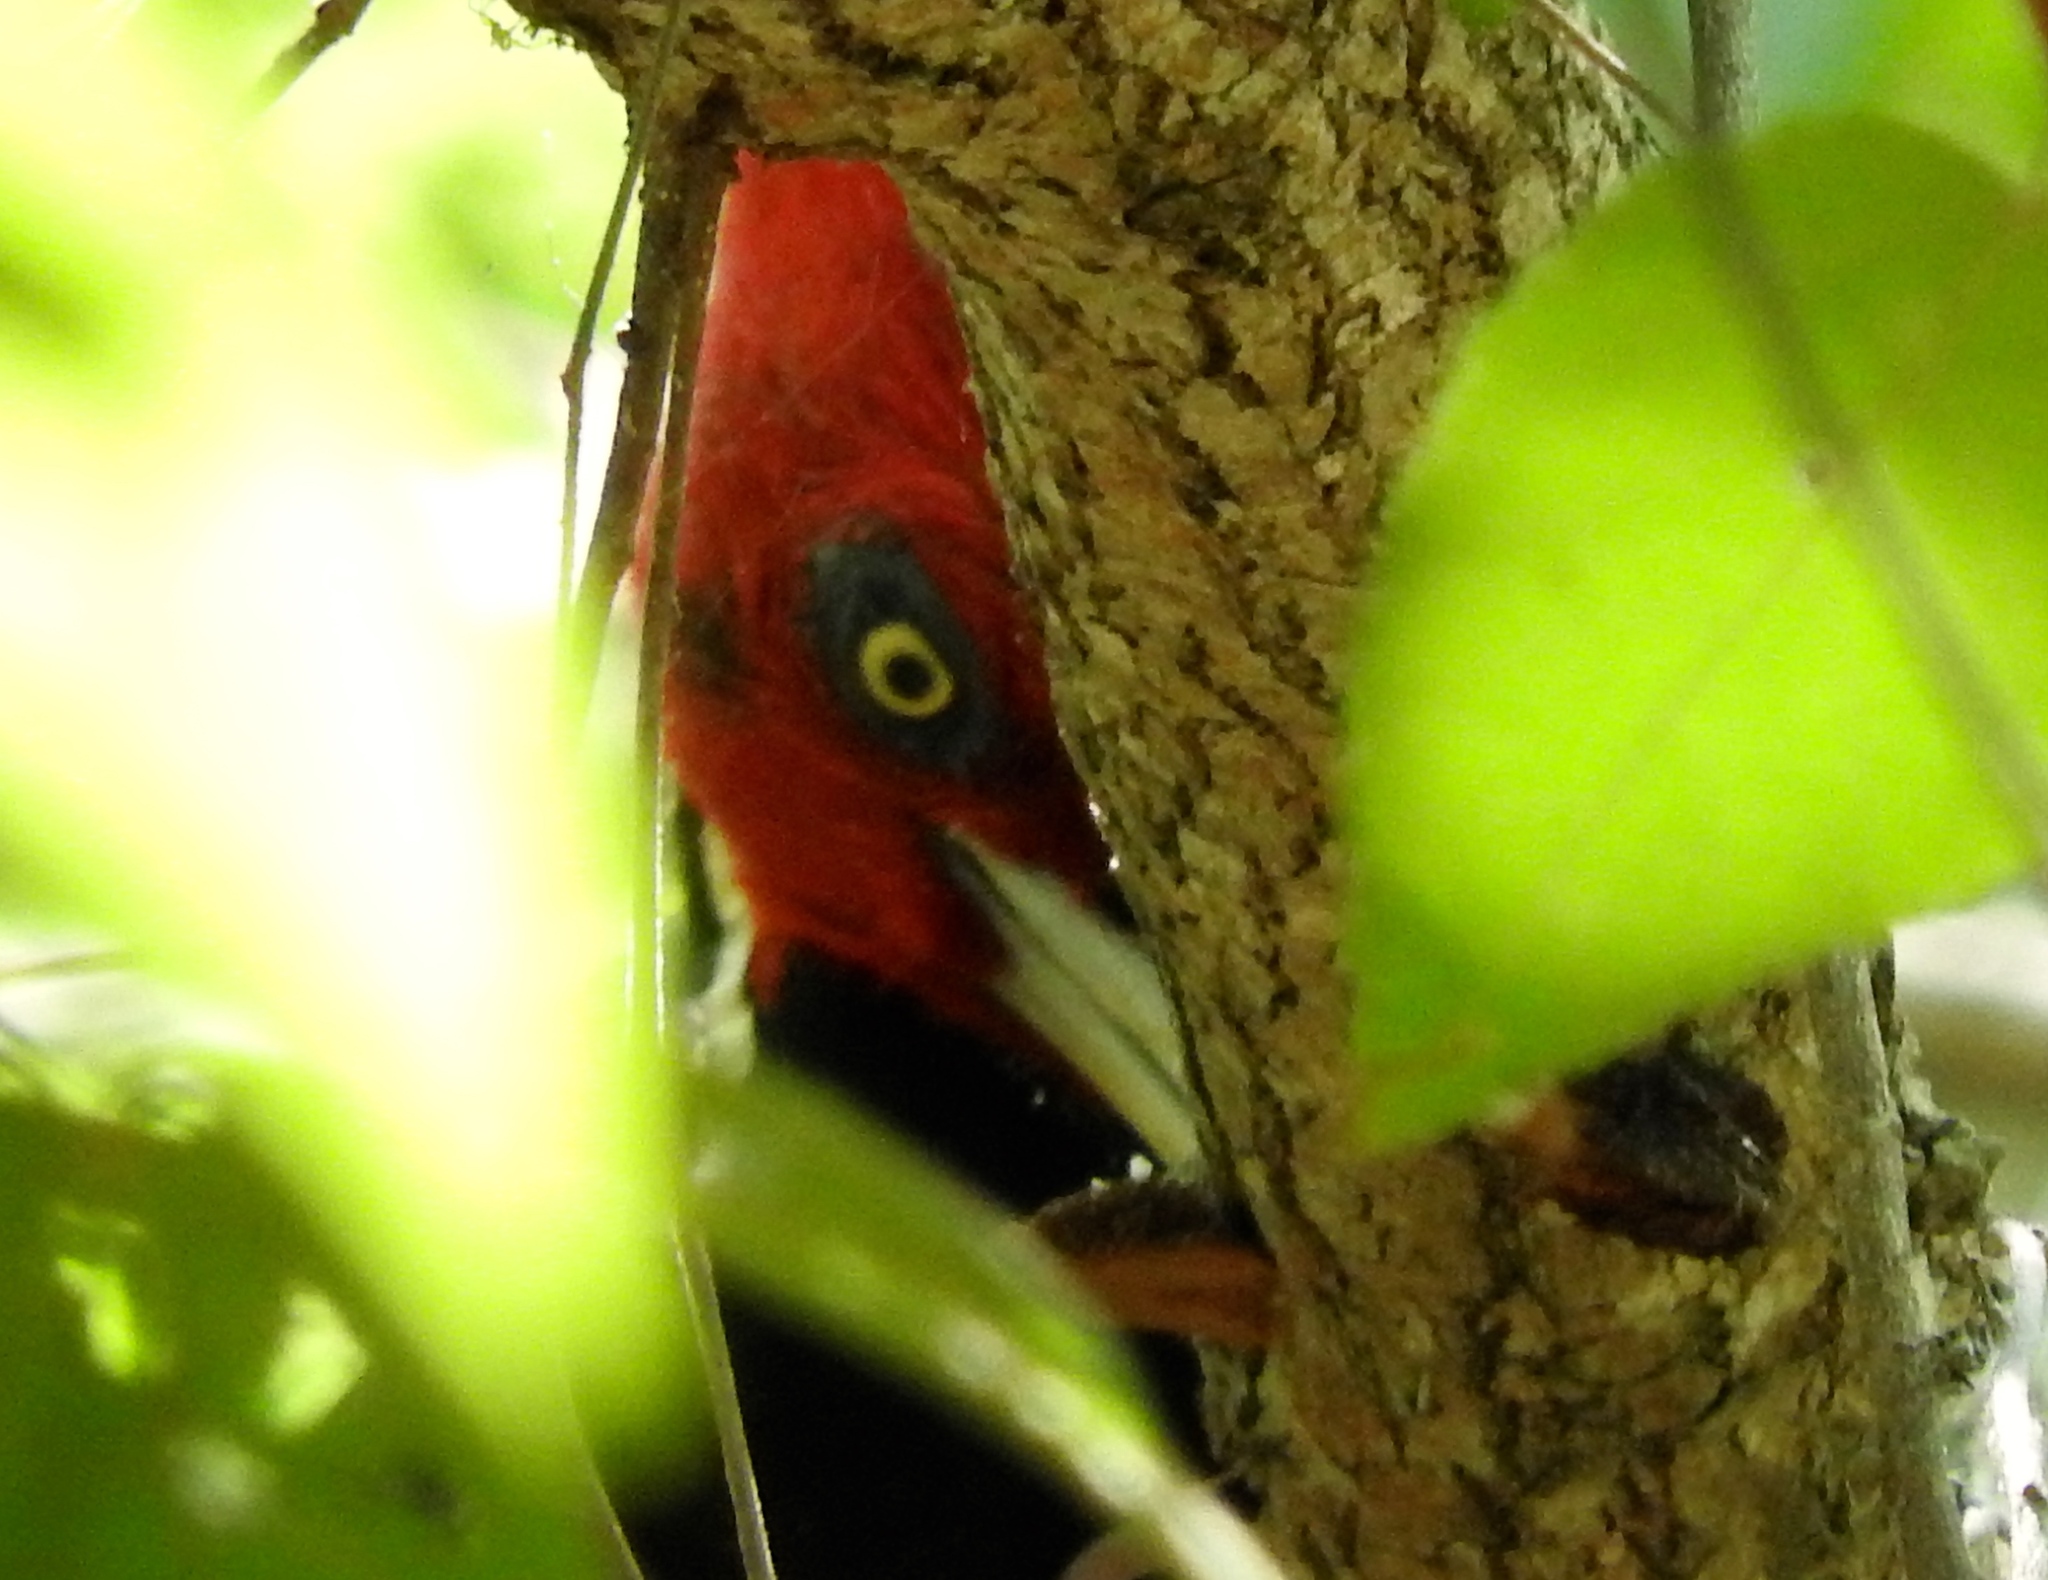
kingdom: Animalia
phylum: Chordata
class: Aves
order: Piciformes
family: Picidae
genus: Campephilus
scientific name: Campephilus guatemalensis
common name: Pale-billed woodpecker
